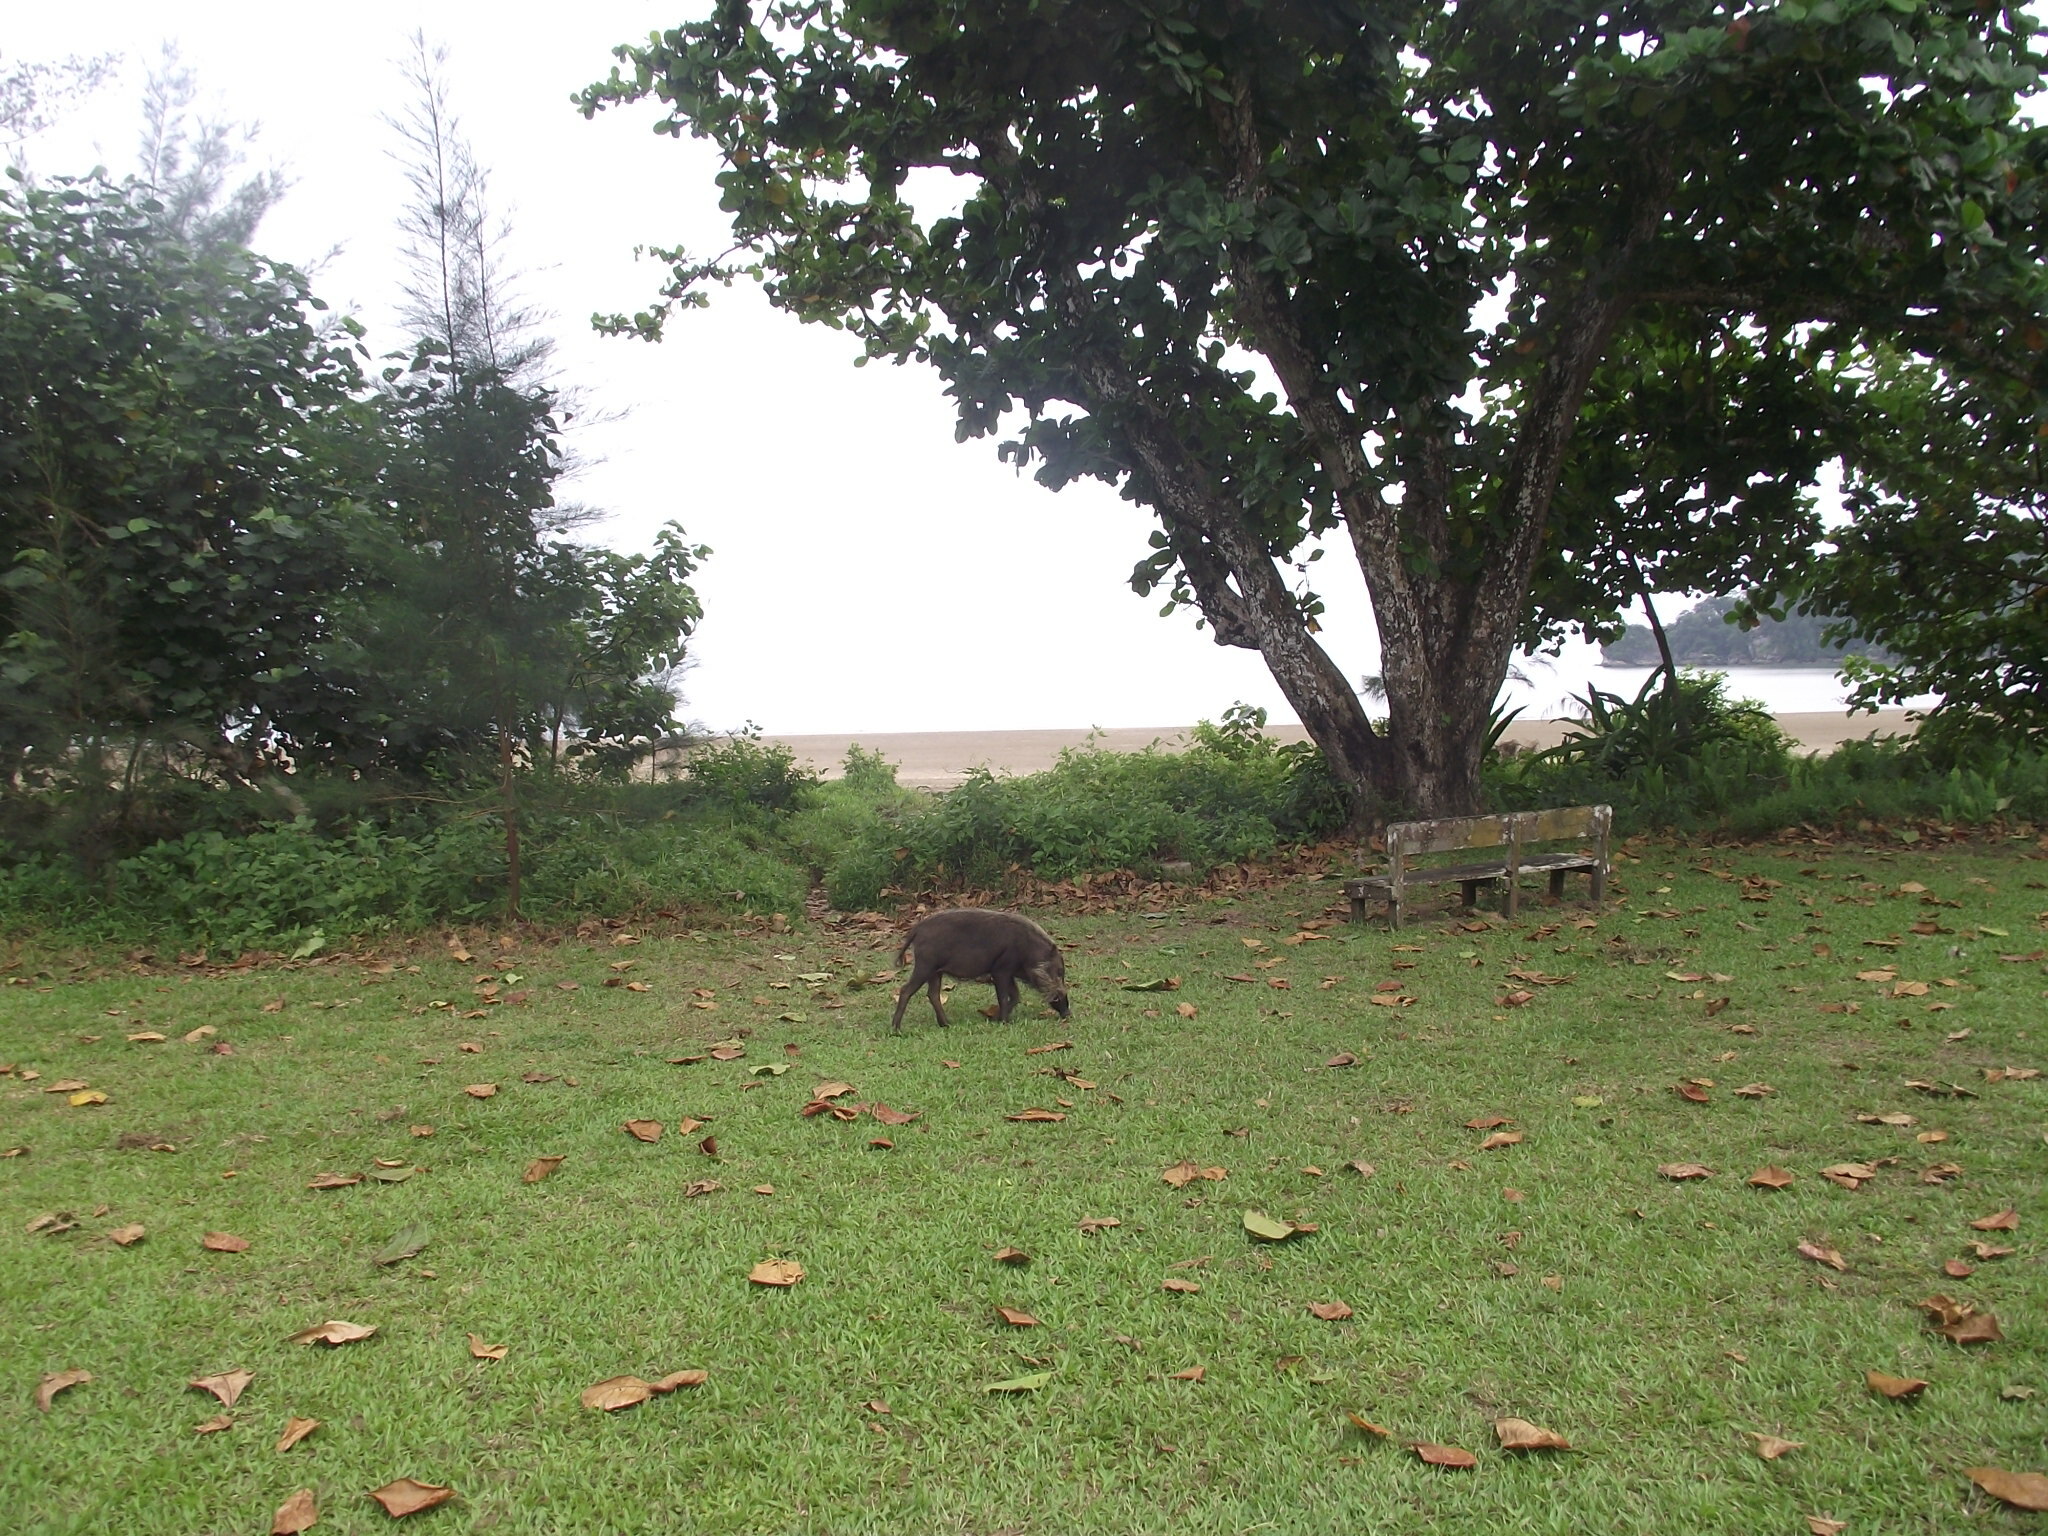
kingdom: Animalia
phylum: Chordata
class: Mammalia
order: Artiodactyla
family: Suidae
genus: Sus
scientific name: Sus barbatus
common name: Bearded pig
